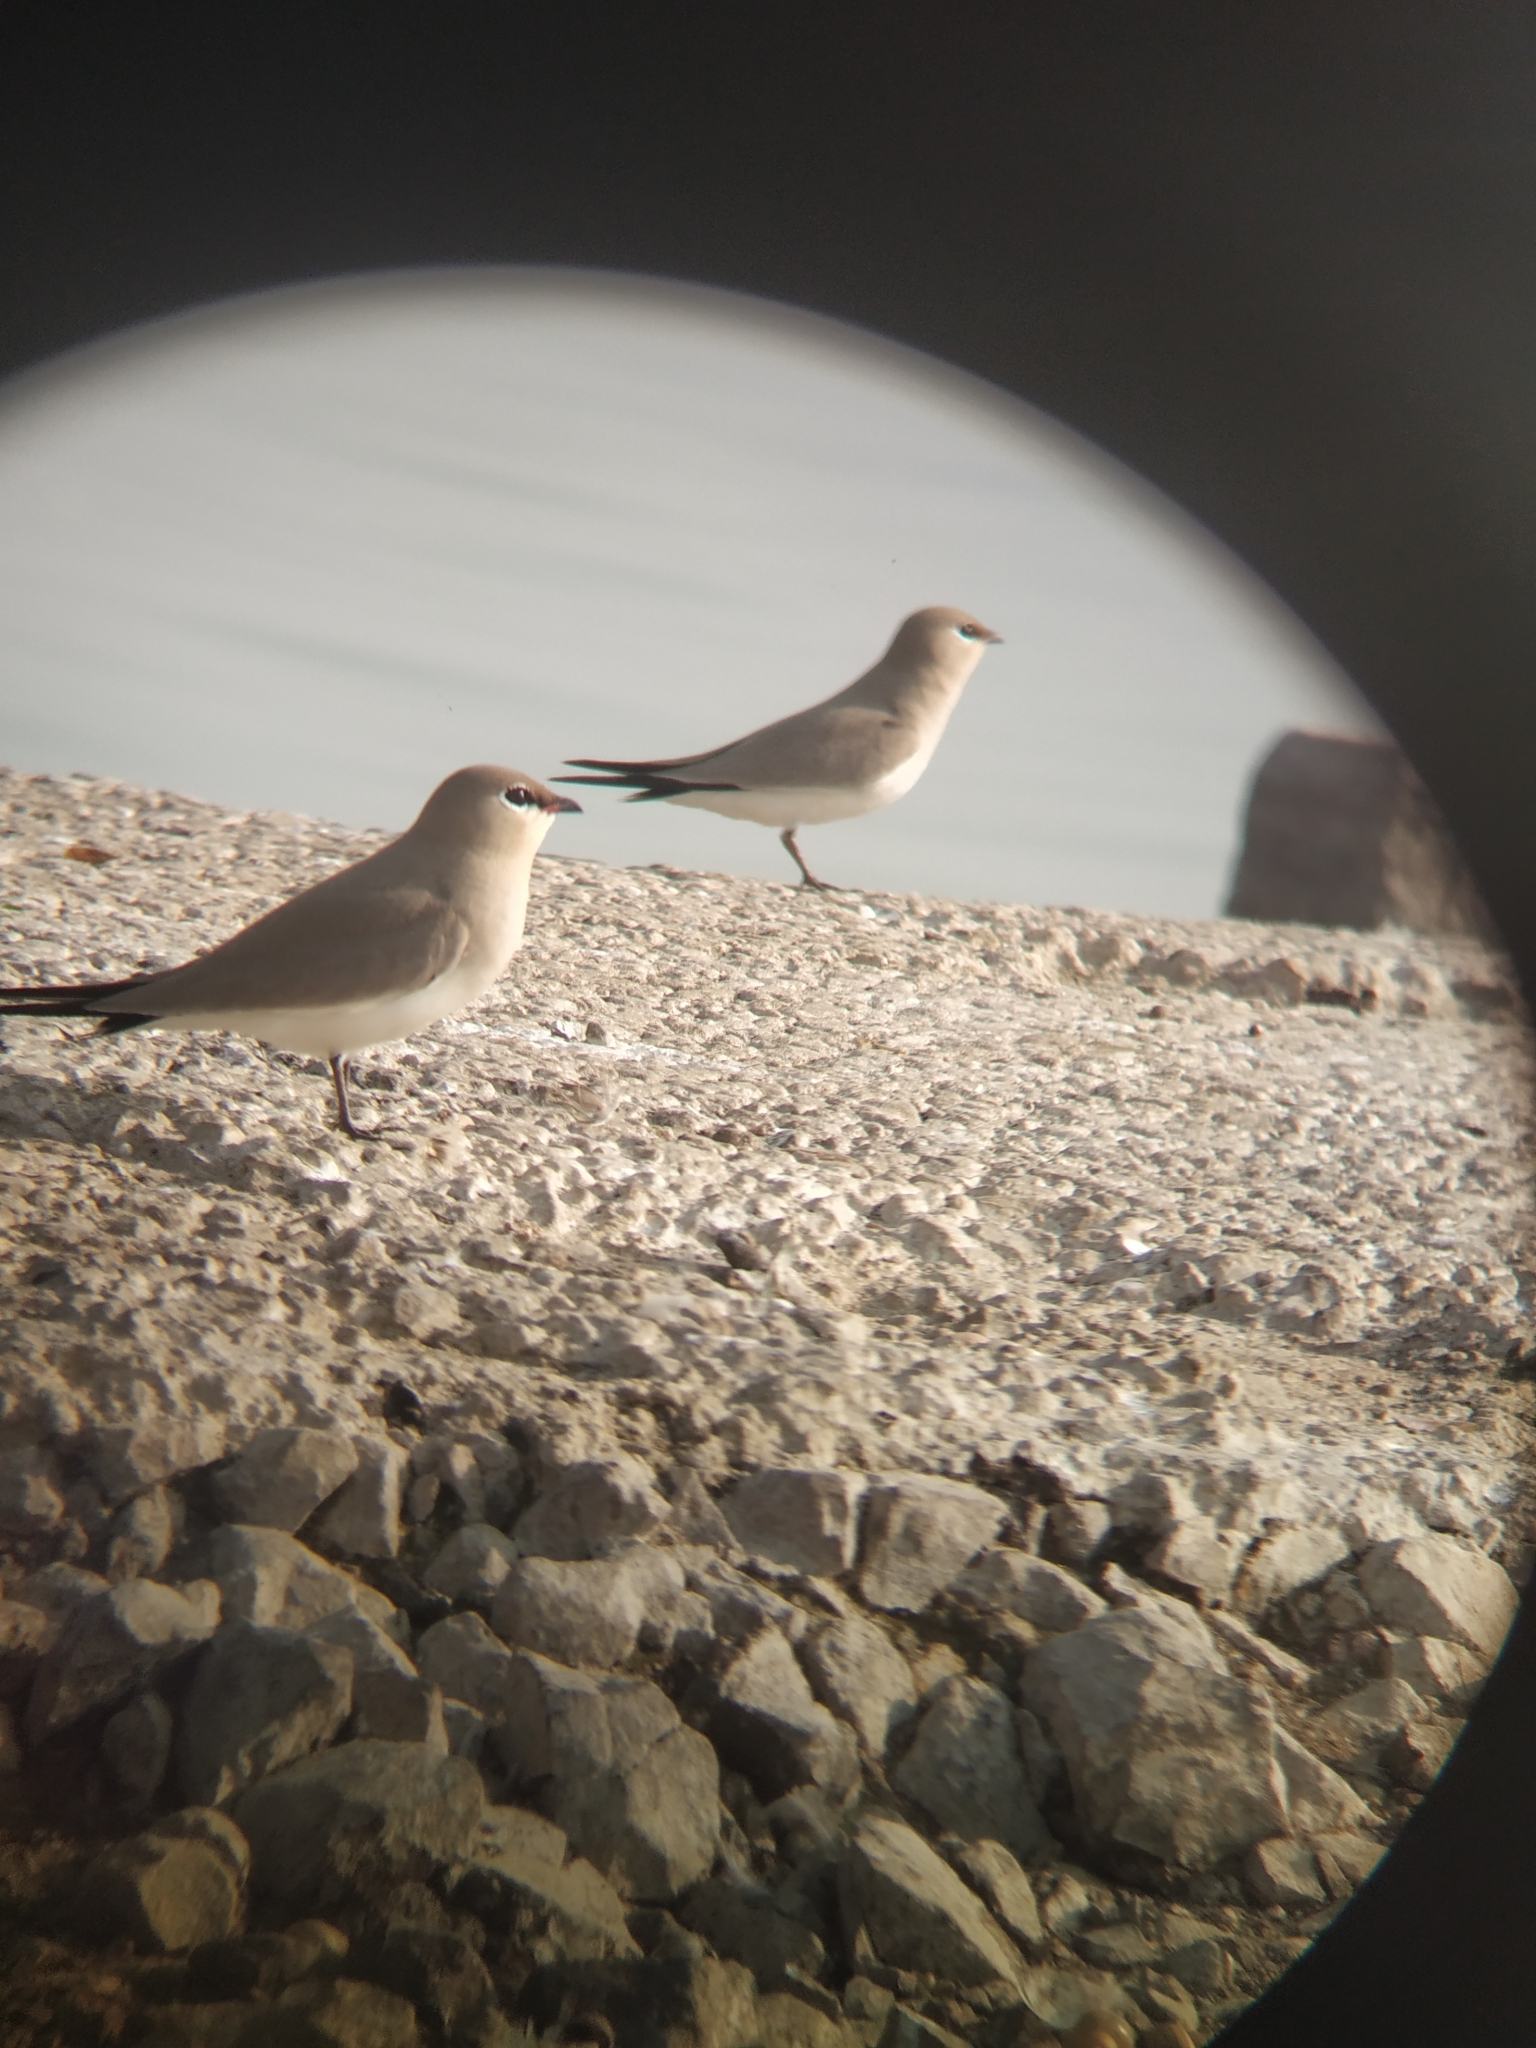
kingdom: Animalia
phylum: Chordata
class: Aves
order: Charadriiformes
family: Glareolidae
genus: Glareola
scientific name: Glareola lactea
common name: Small pratincole
